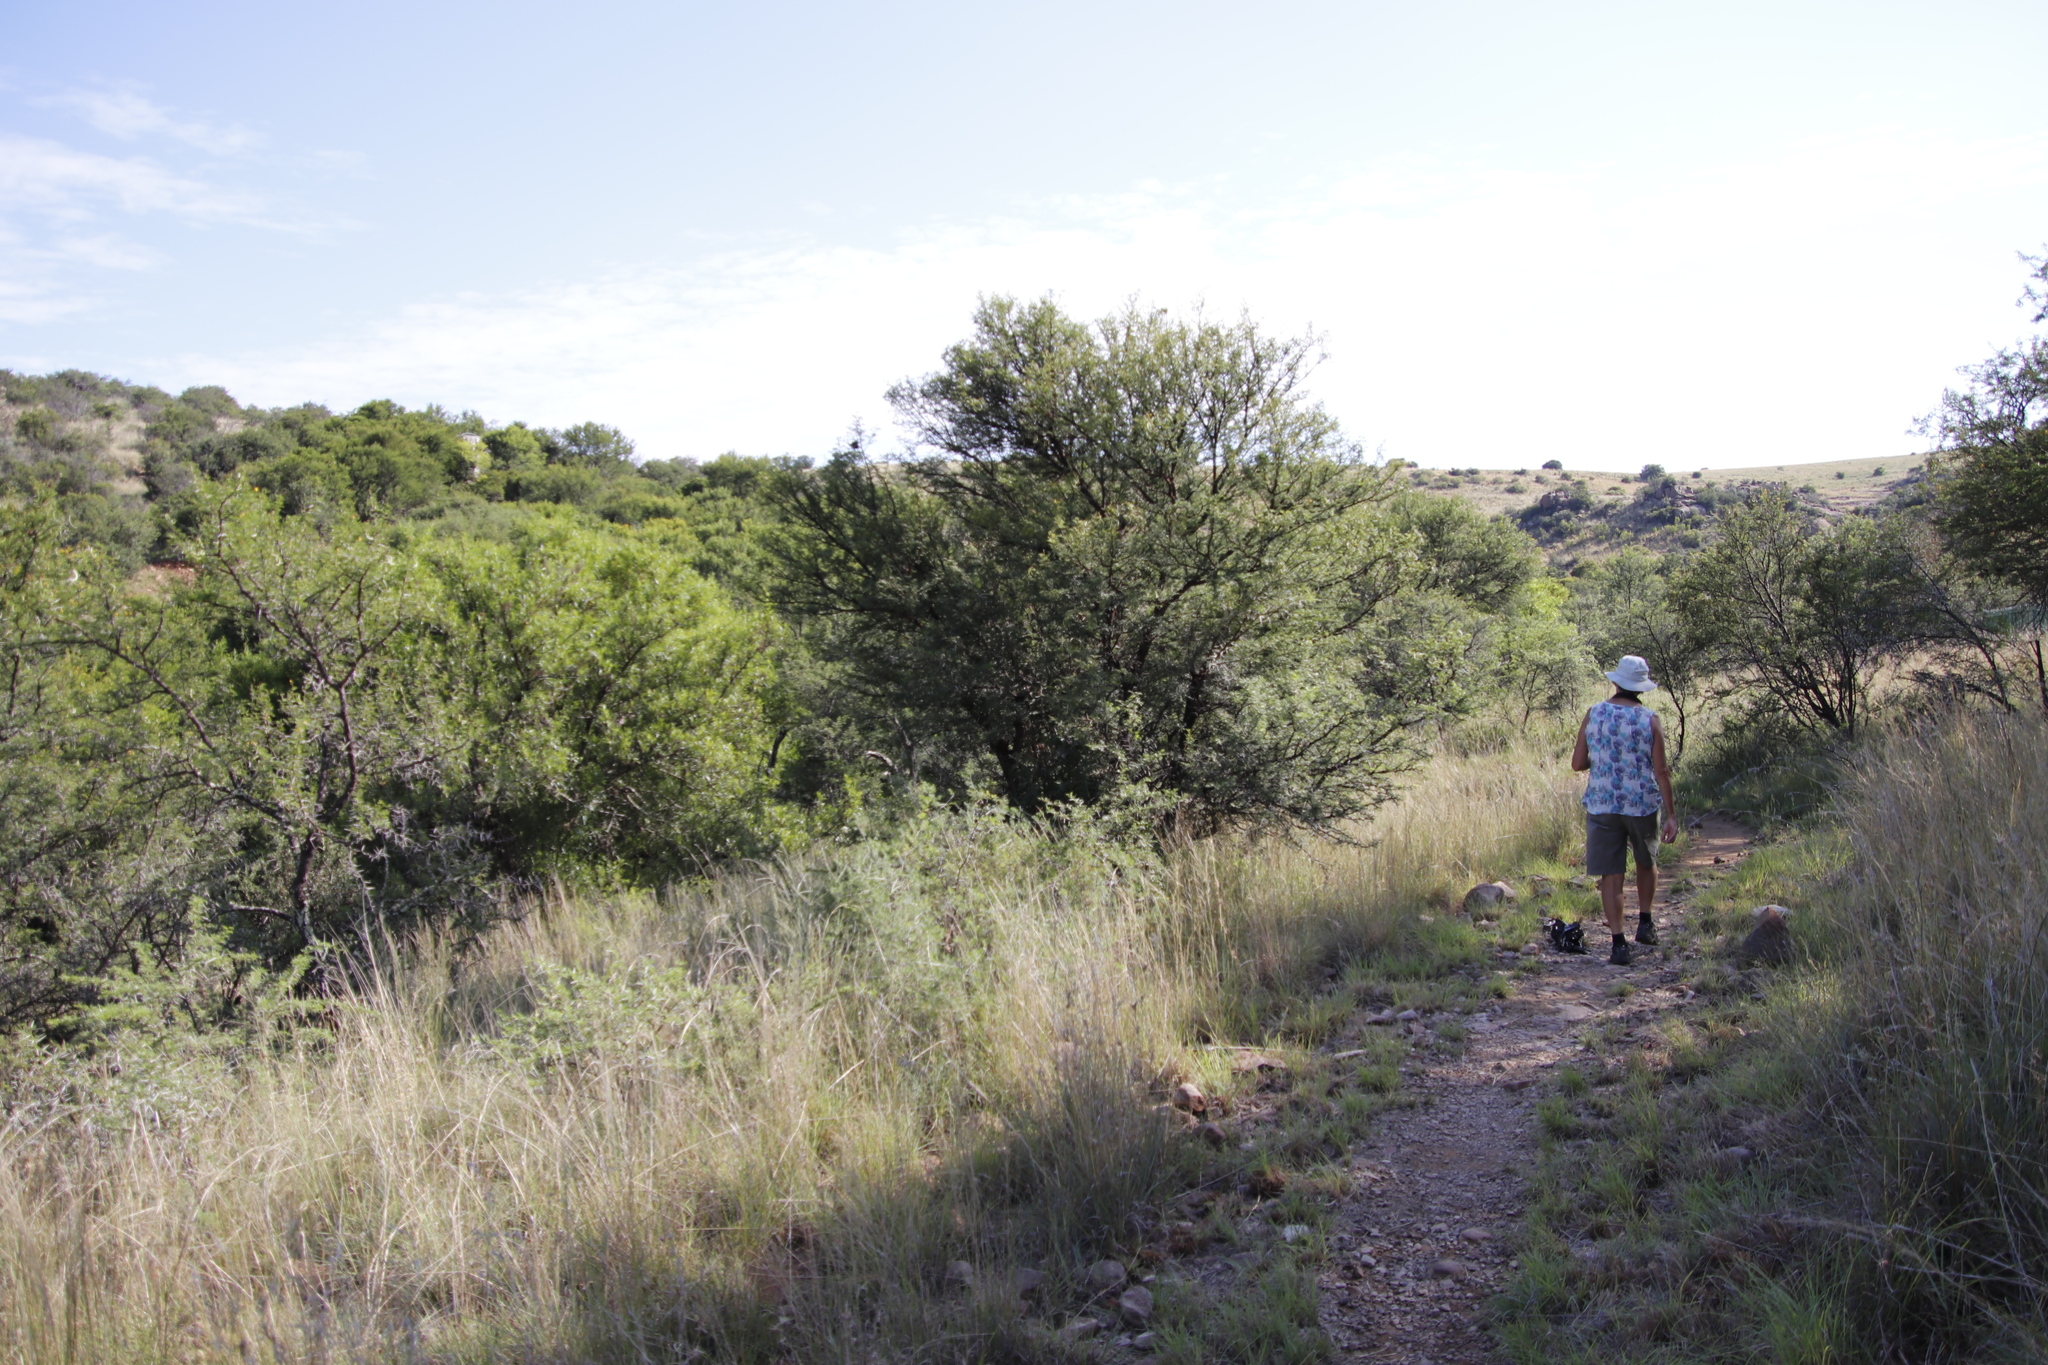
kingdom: Plantae
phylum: Tracheophyta
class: Magnoliopsida
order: Fabales
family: Fabaceae
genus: Vachellia
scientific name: Vachellia karroo
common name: Sweet thorn
